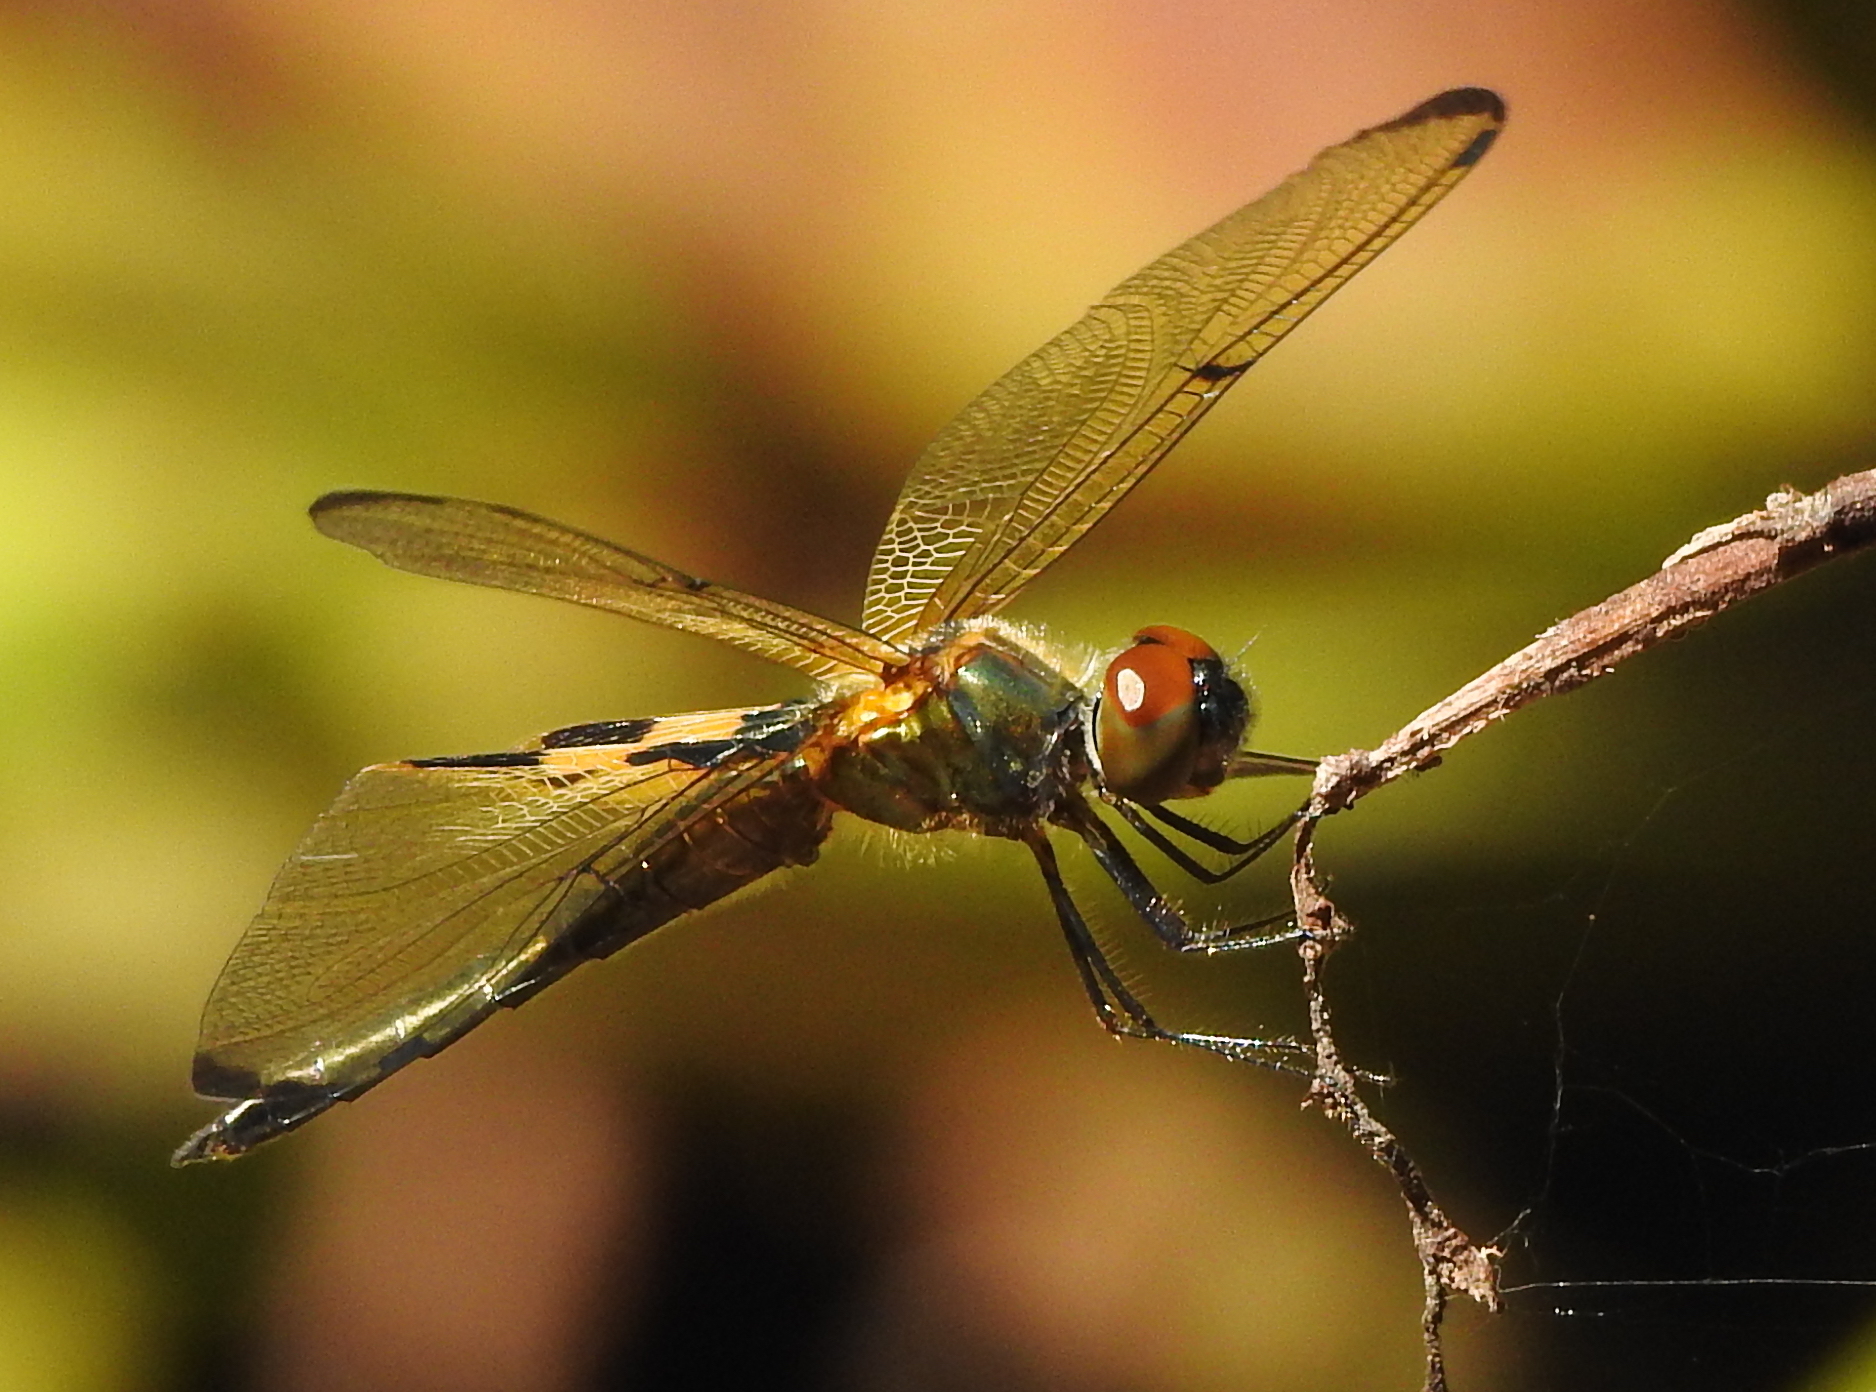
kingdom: Animalia
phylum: Arthropoda
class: Insecta
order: Odonata
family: Libellulidae
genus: Rhyothemis
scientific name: Rhyothemis phyllis
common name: Yellow-barred flutterer
